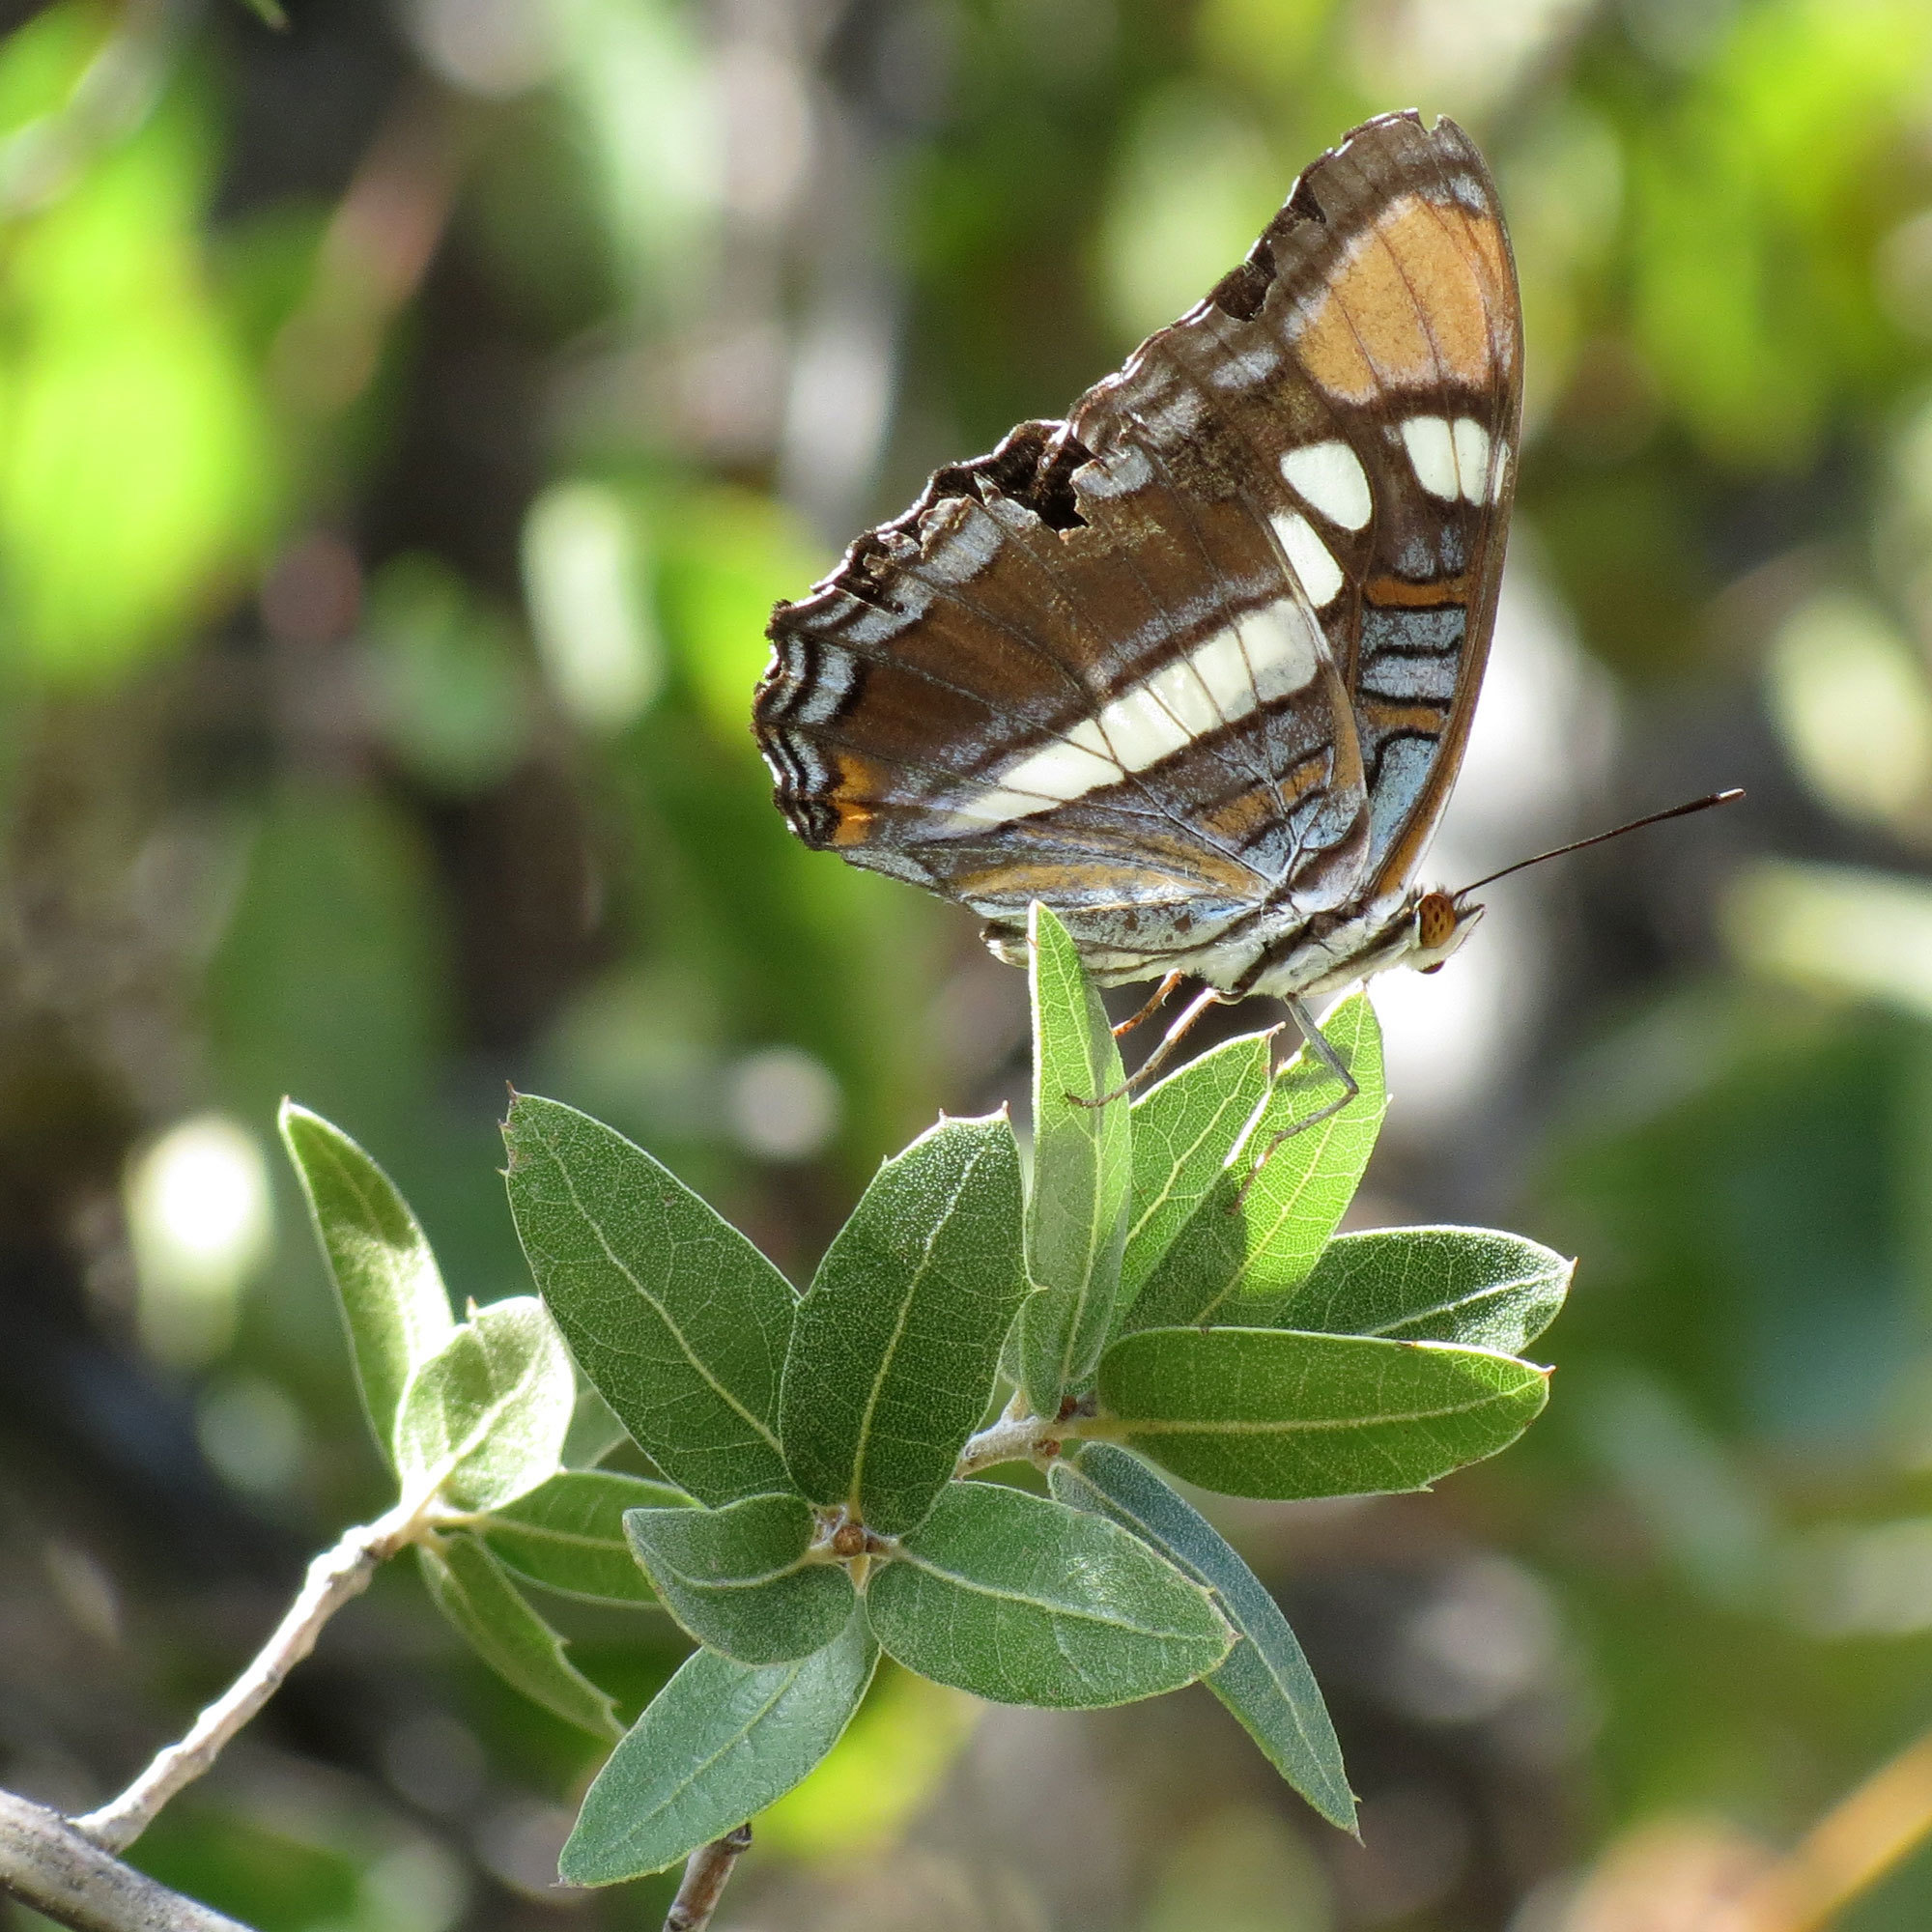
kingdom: Animalia
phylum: Arthropoda
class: Insecta
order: Lepidoptera
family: Nymphalidae
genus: Limenitis
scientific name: Limenitis bredowii
